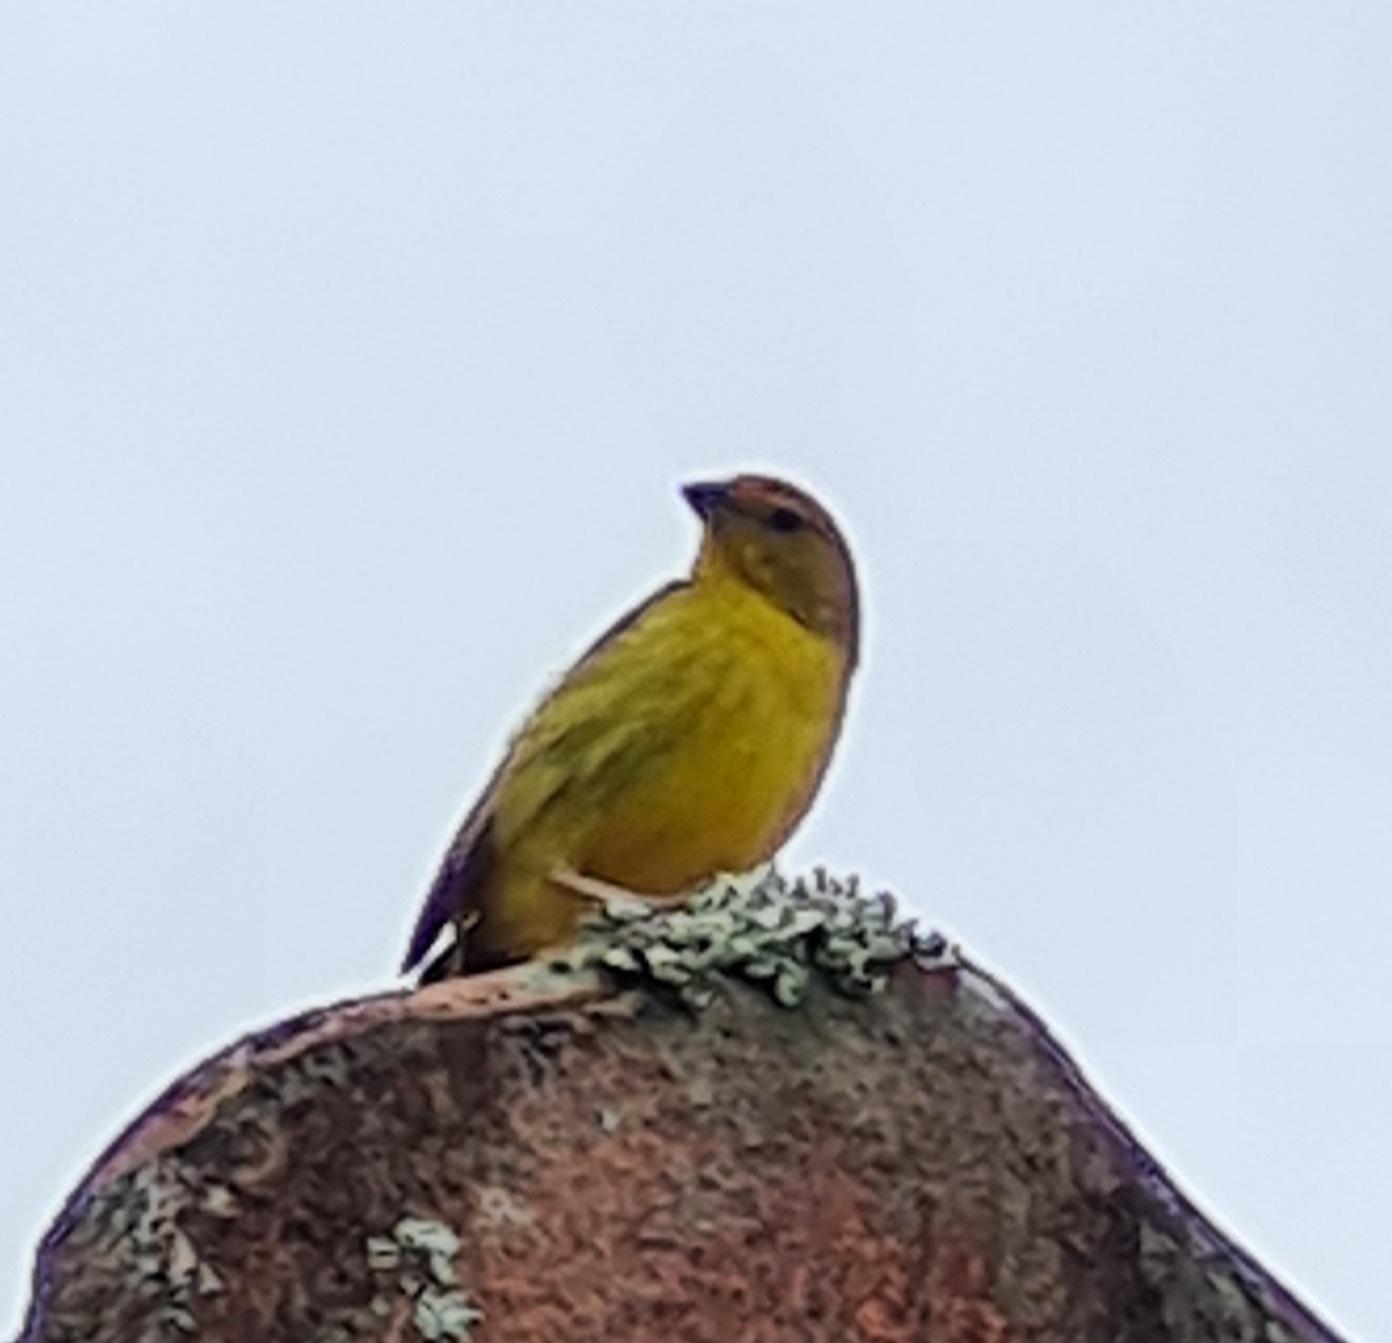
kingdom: Animalia
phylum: Chordata
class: Aves
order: Passeriformes
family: Thraupidae
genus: Sicalis
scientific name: Sicalis flaveola
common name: Saffron finch
